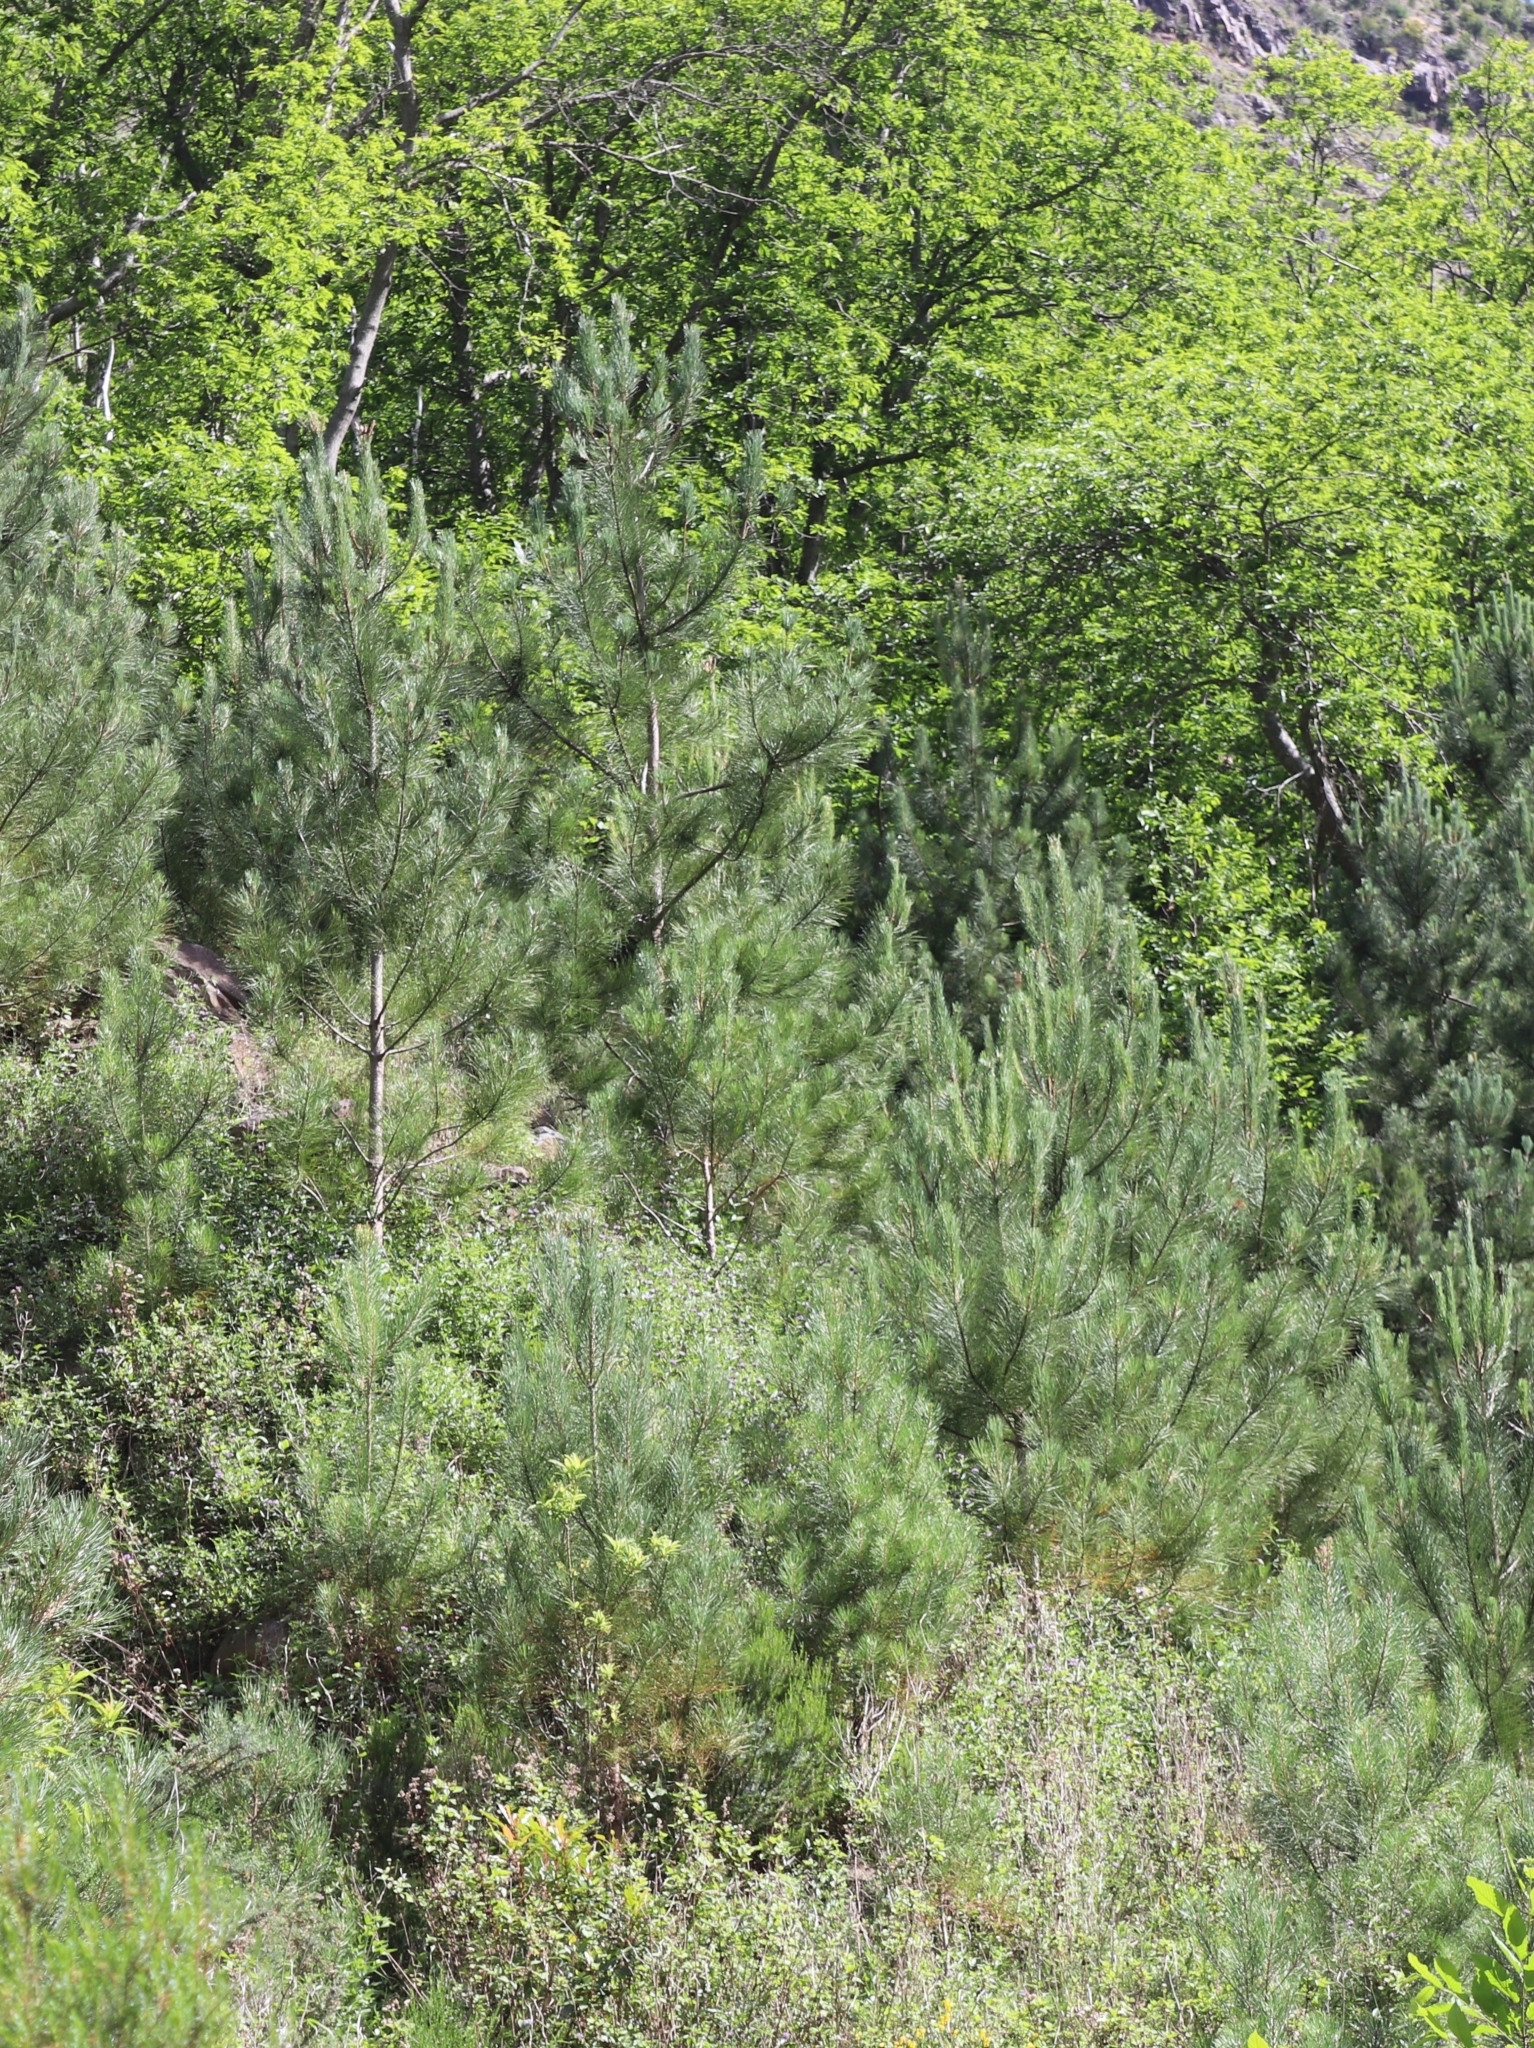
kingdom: Plantae
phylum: Tracheophyta
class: Pinopsida
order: Pinales
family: Pinaceae
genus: Pinus
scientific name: Pinus pinaster
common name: Maritime pine
